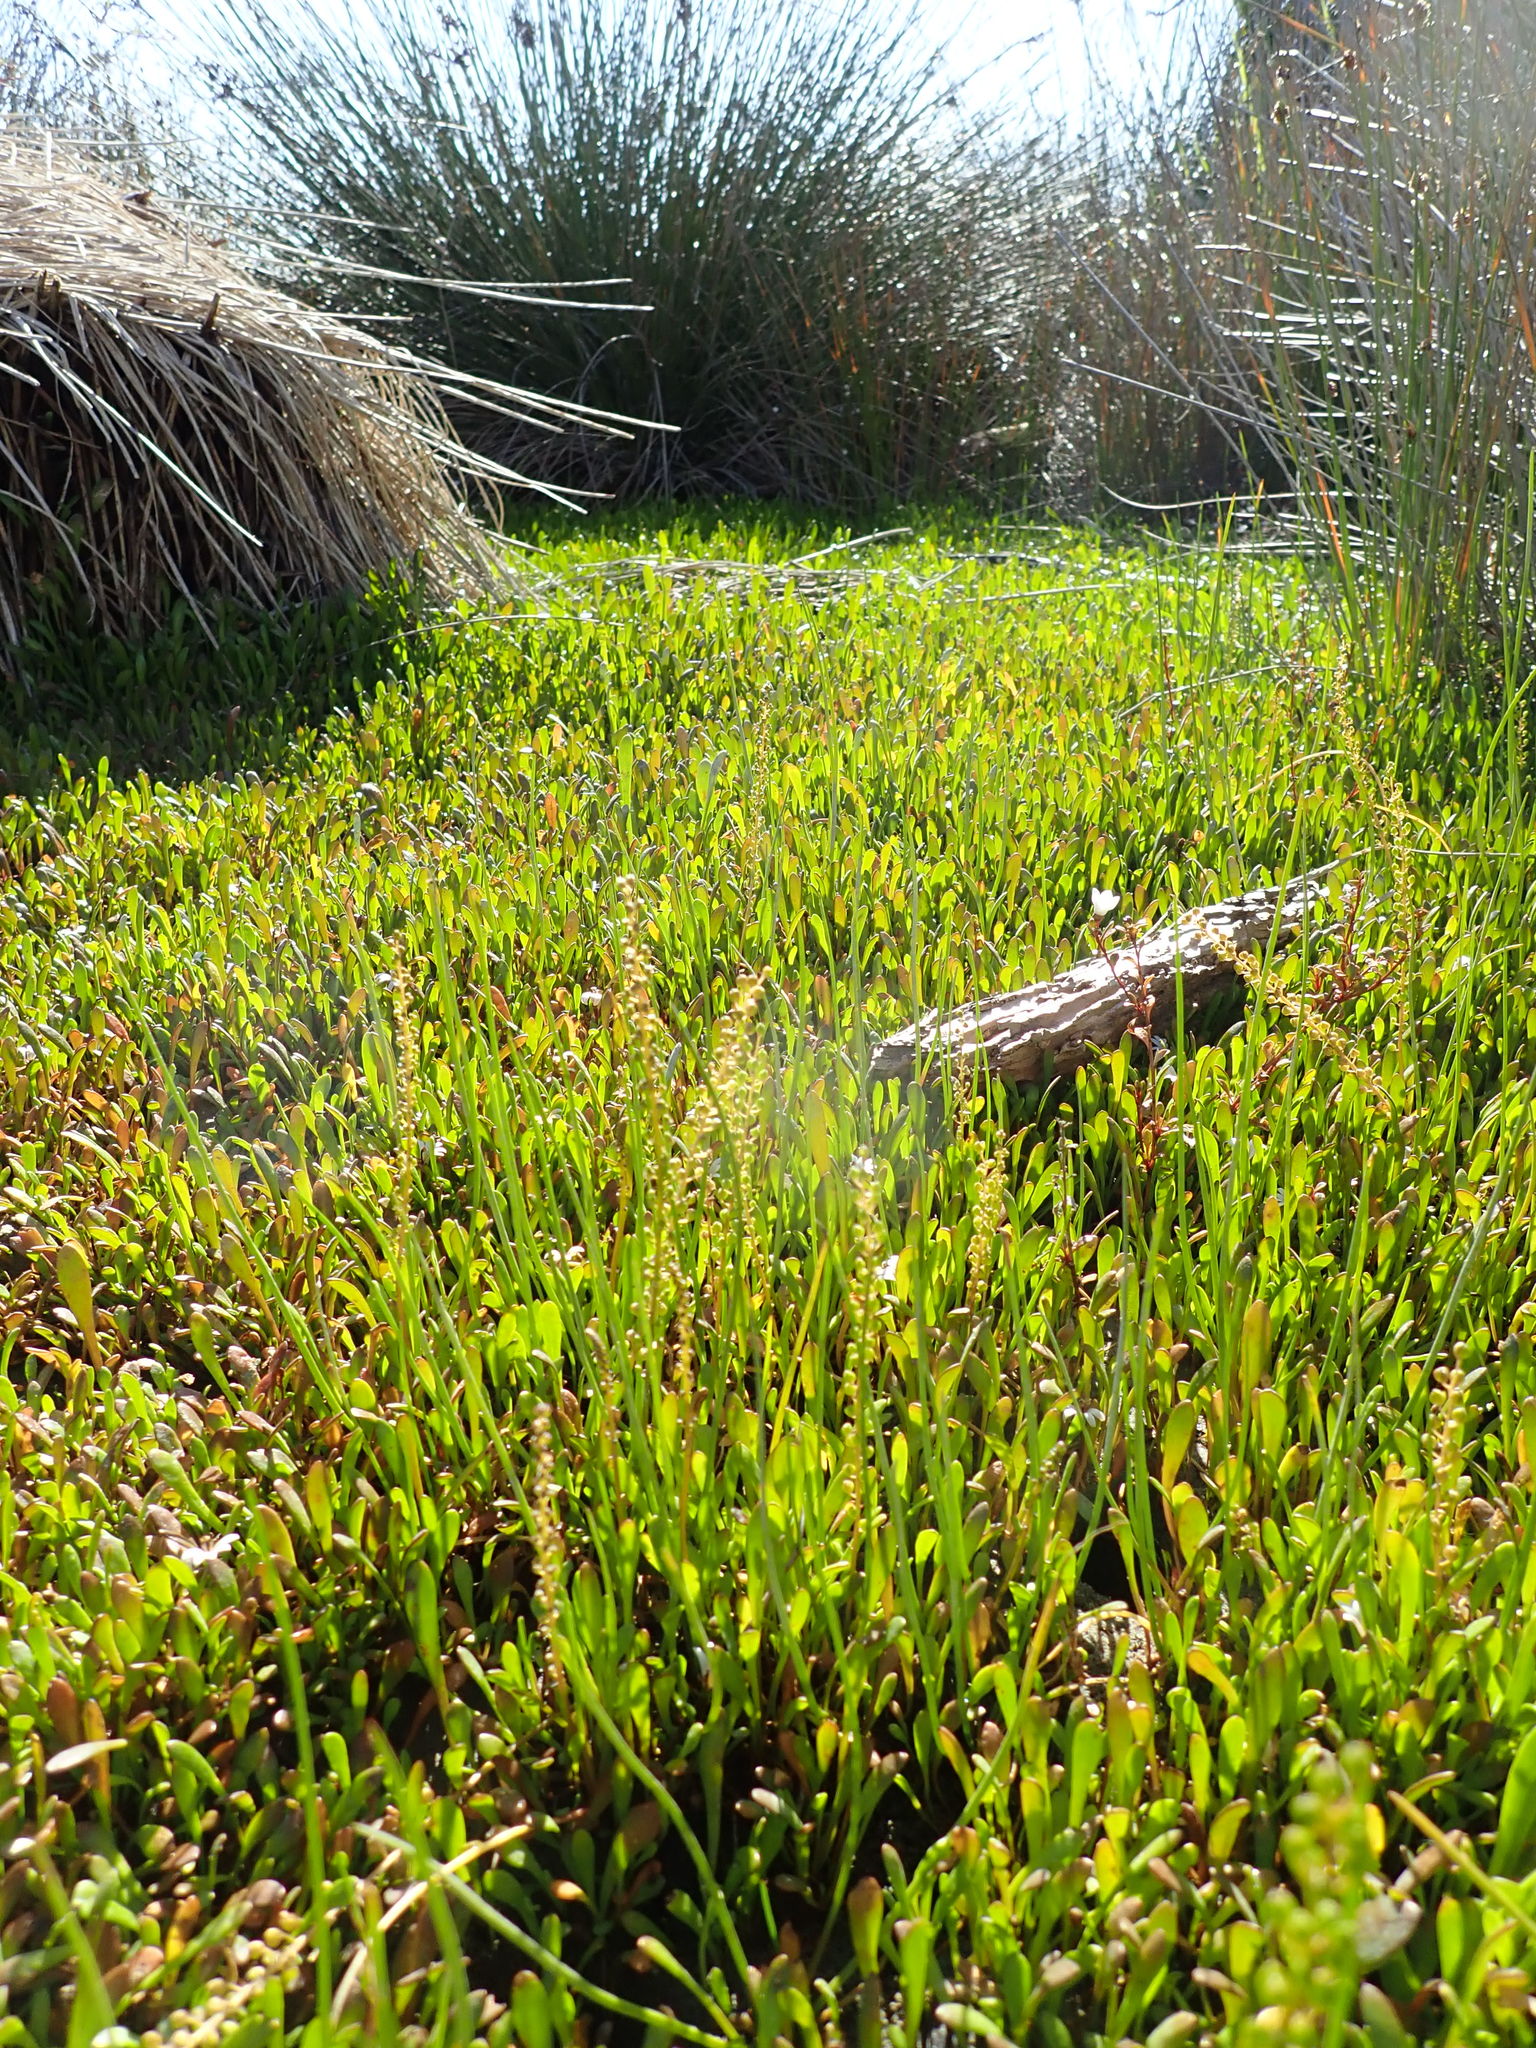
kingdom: Plantae
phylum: Tracheophyta
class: Liliopsida
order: Alismatales
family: Juncaginaceae
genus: Triglochin
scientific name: Triglochin striata
